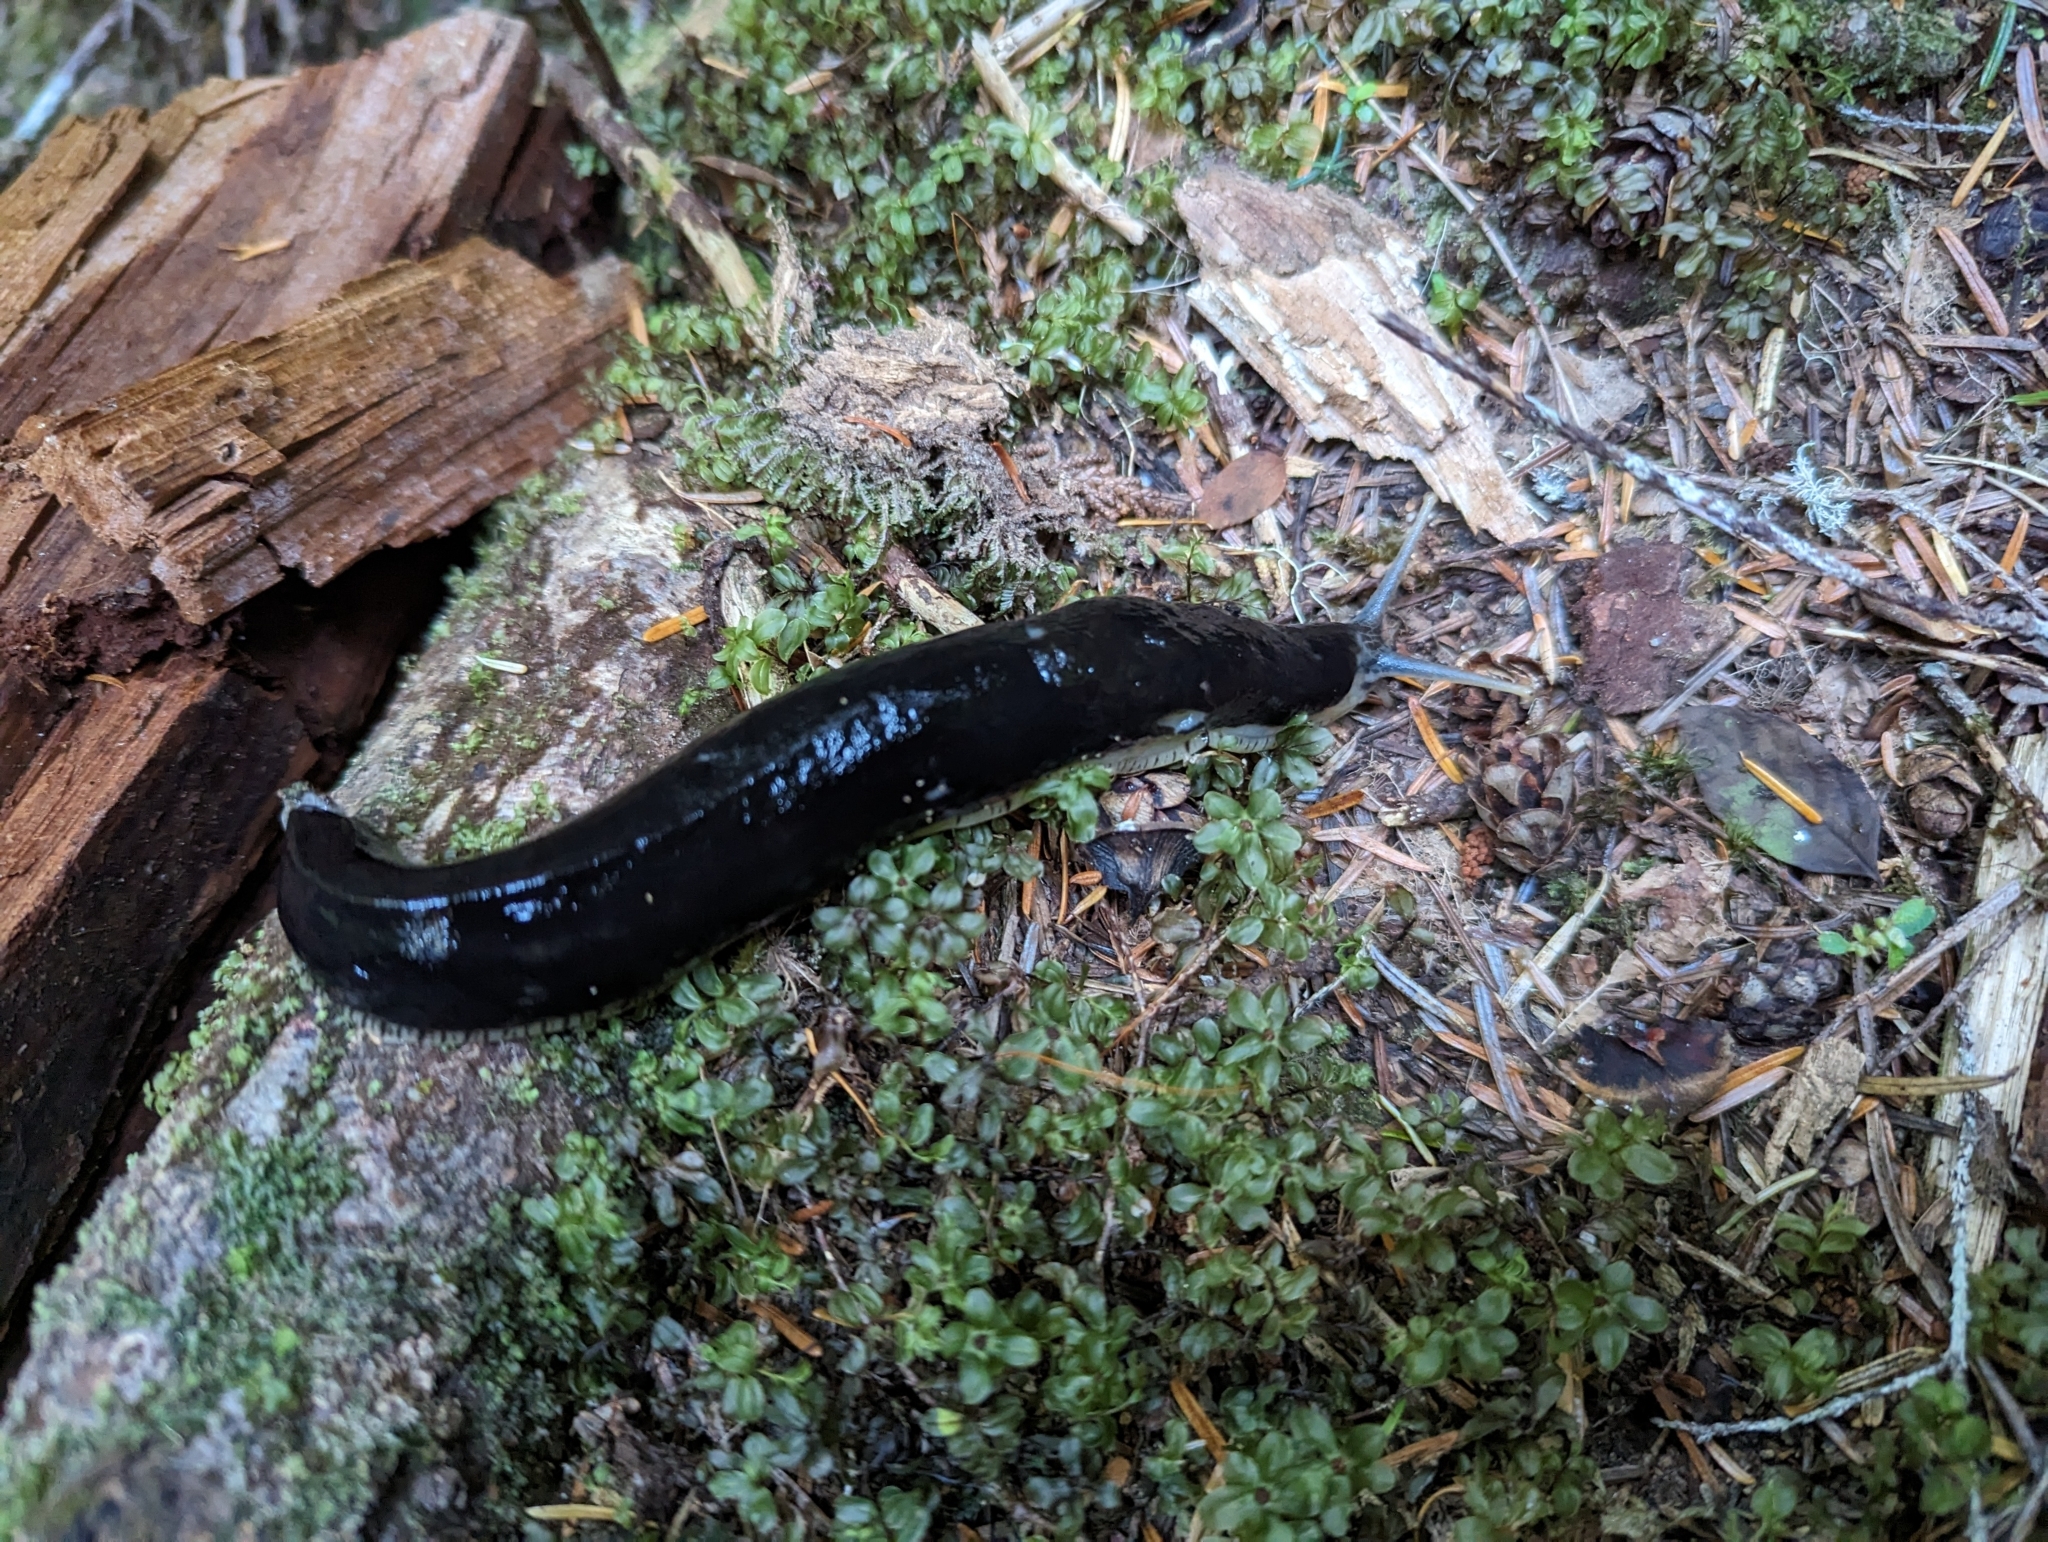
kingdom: Animalia
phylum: Mollusca
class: Gastropoda
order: Stylommatophora
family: Ariolimacidae
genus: Ariolimax
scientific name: Ariolimax columbianus
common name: Pacific banana slug
